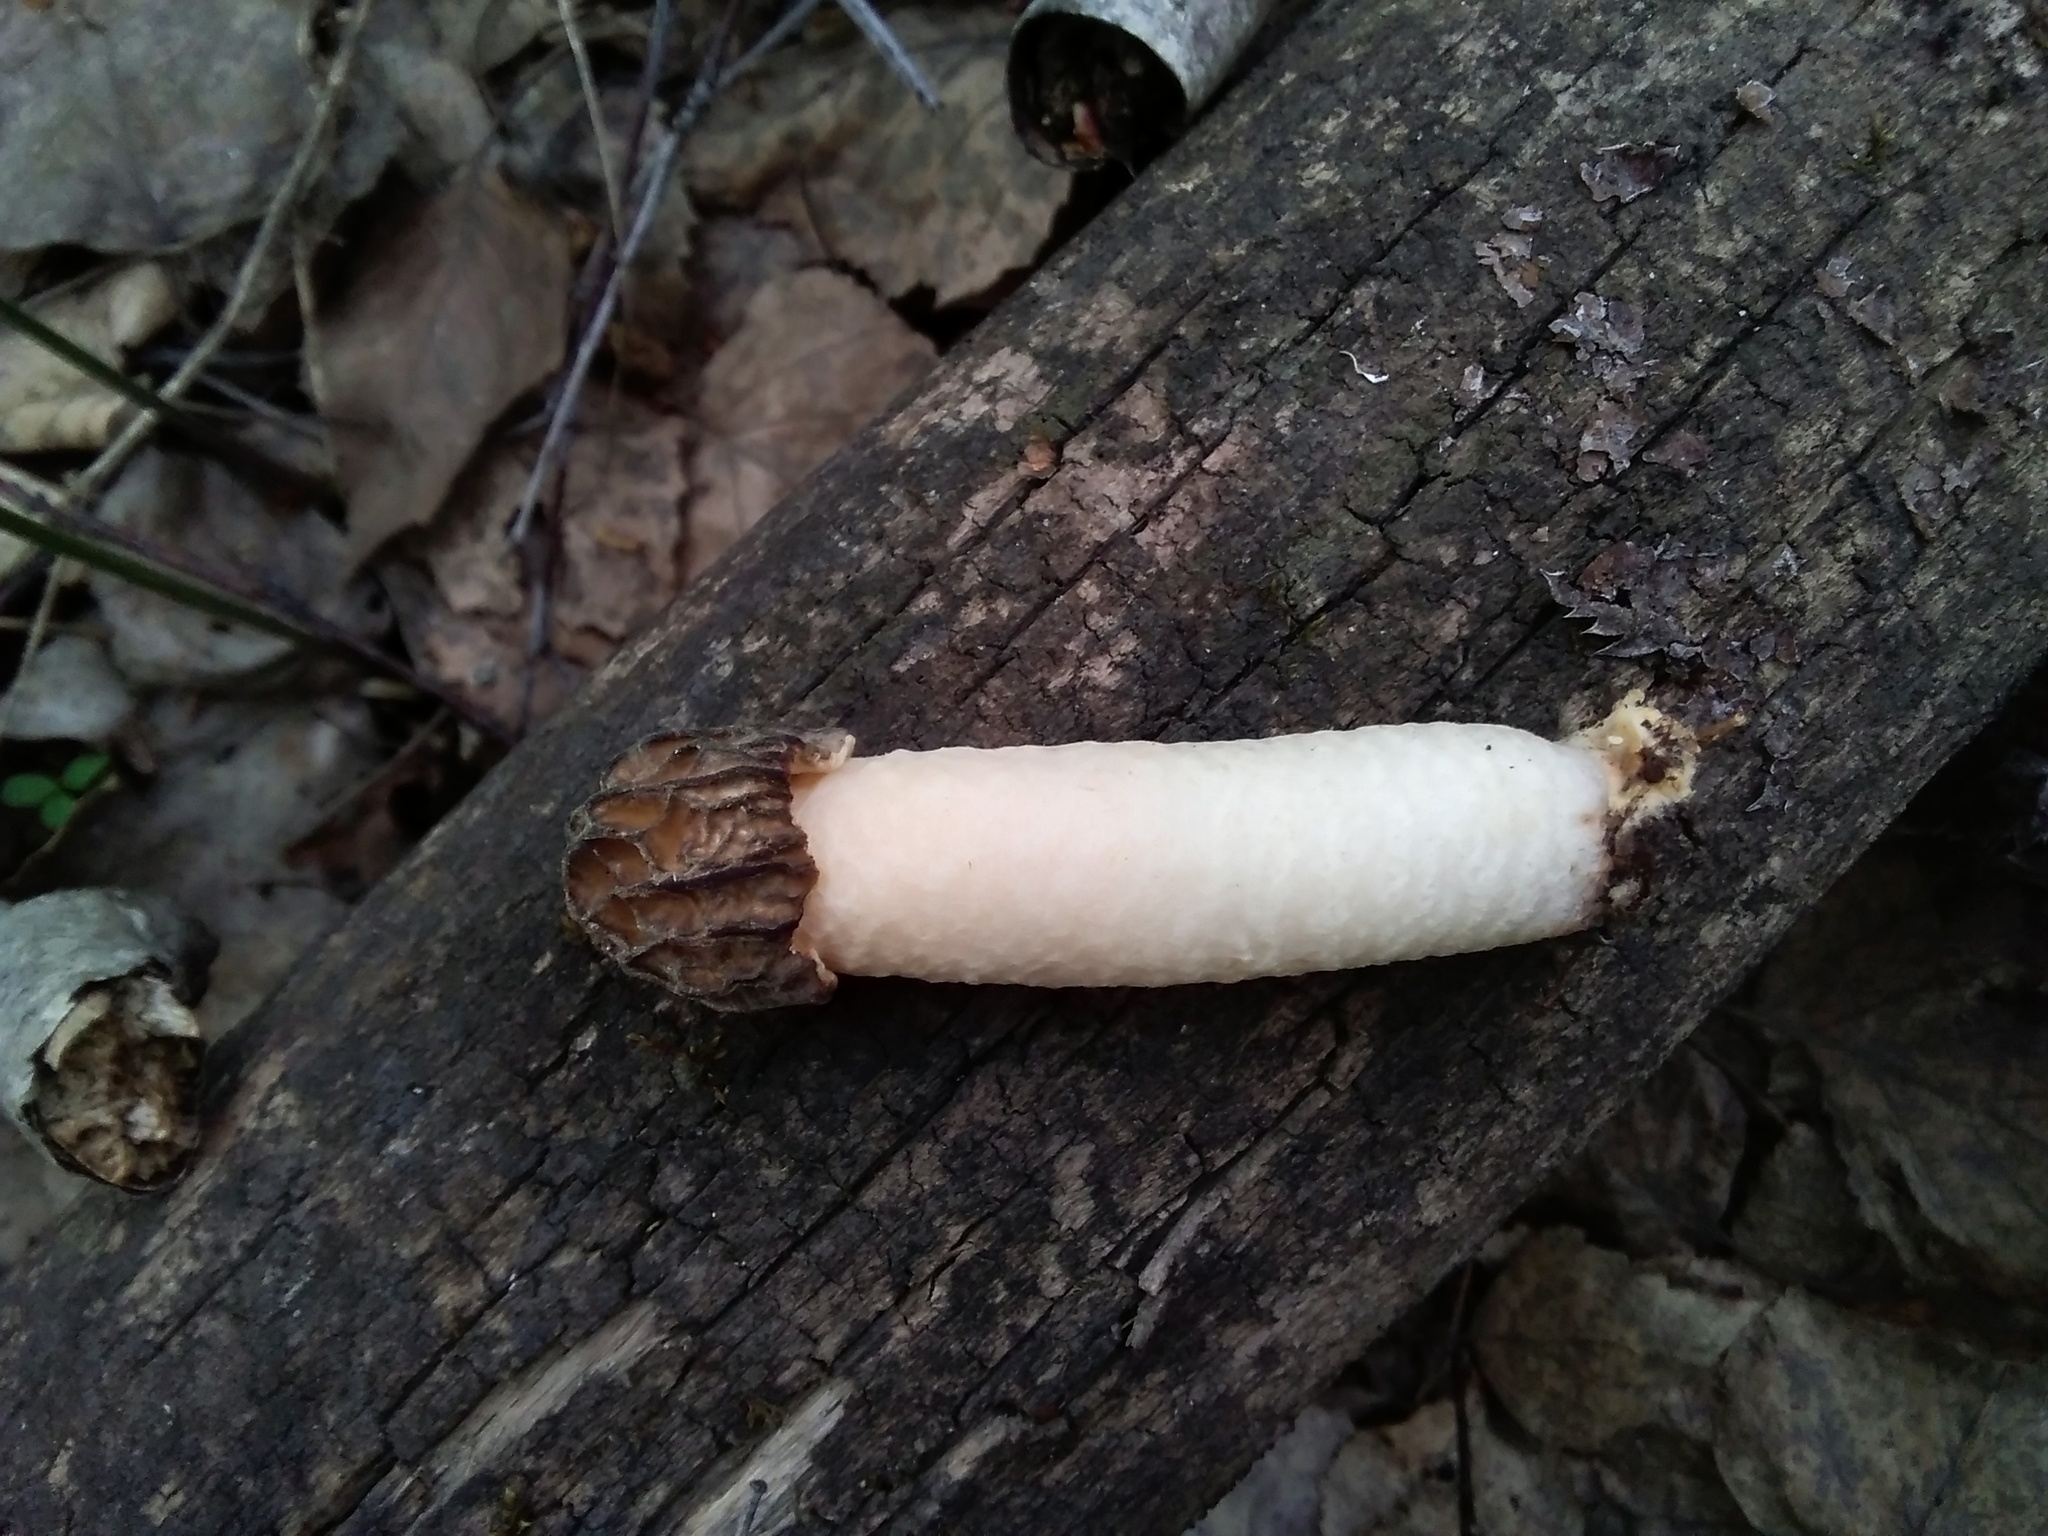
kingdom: Fungi
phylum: Ascomycota
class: Pezizomycetes
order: Pezizales
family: Morchellaceae
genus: Verpa
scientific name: Verpa bohemica
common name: Wrinkled thimble morel
